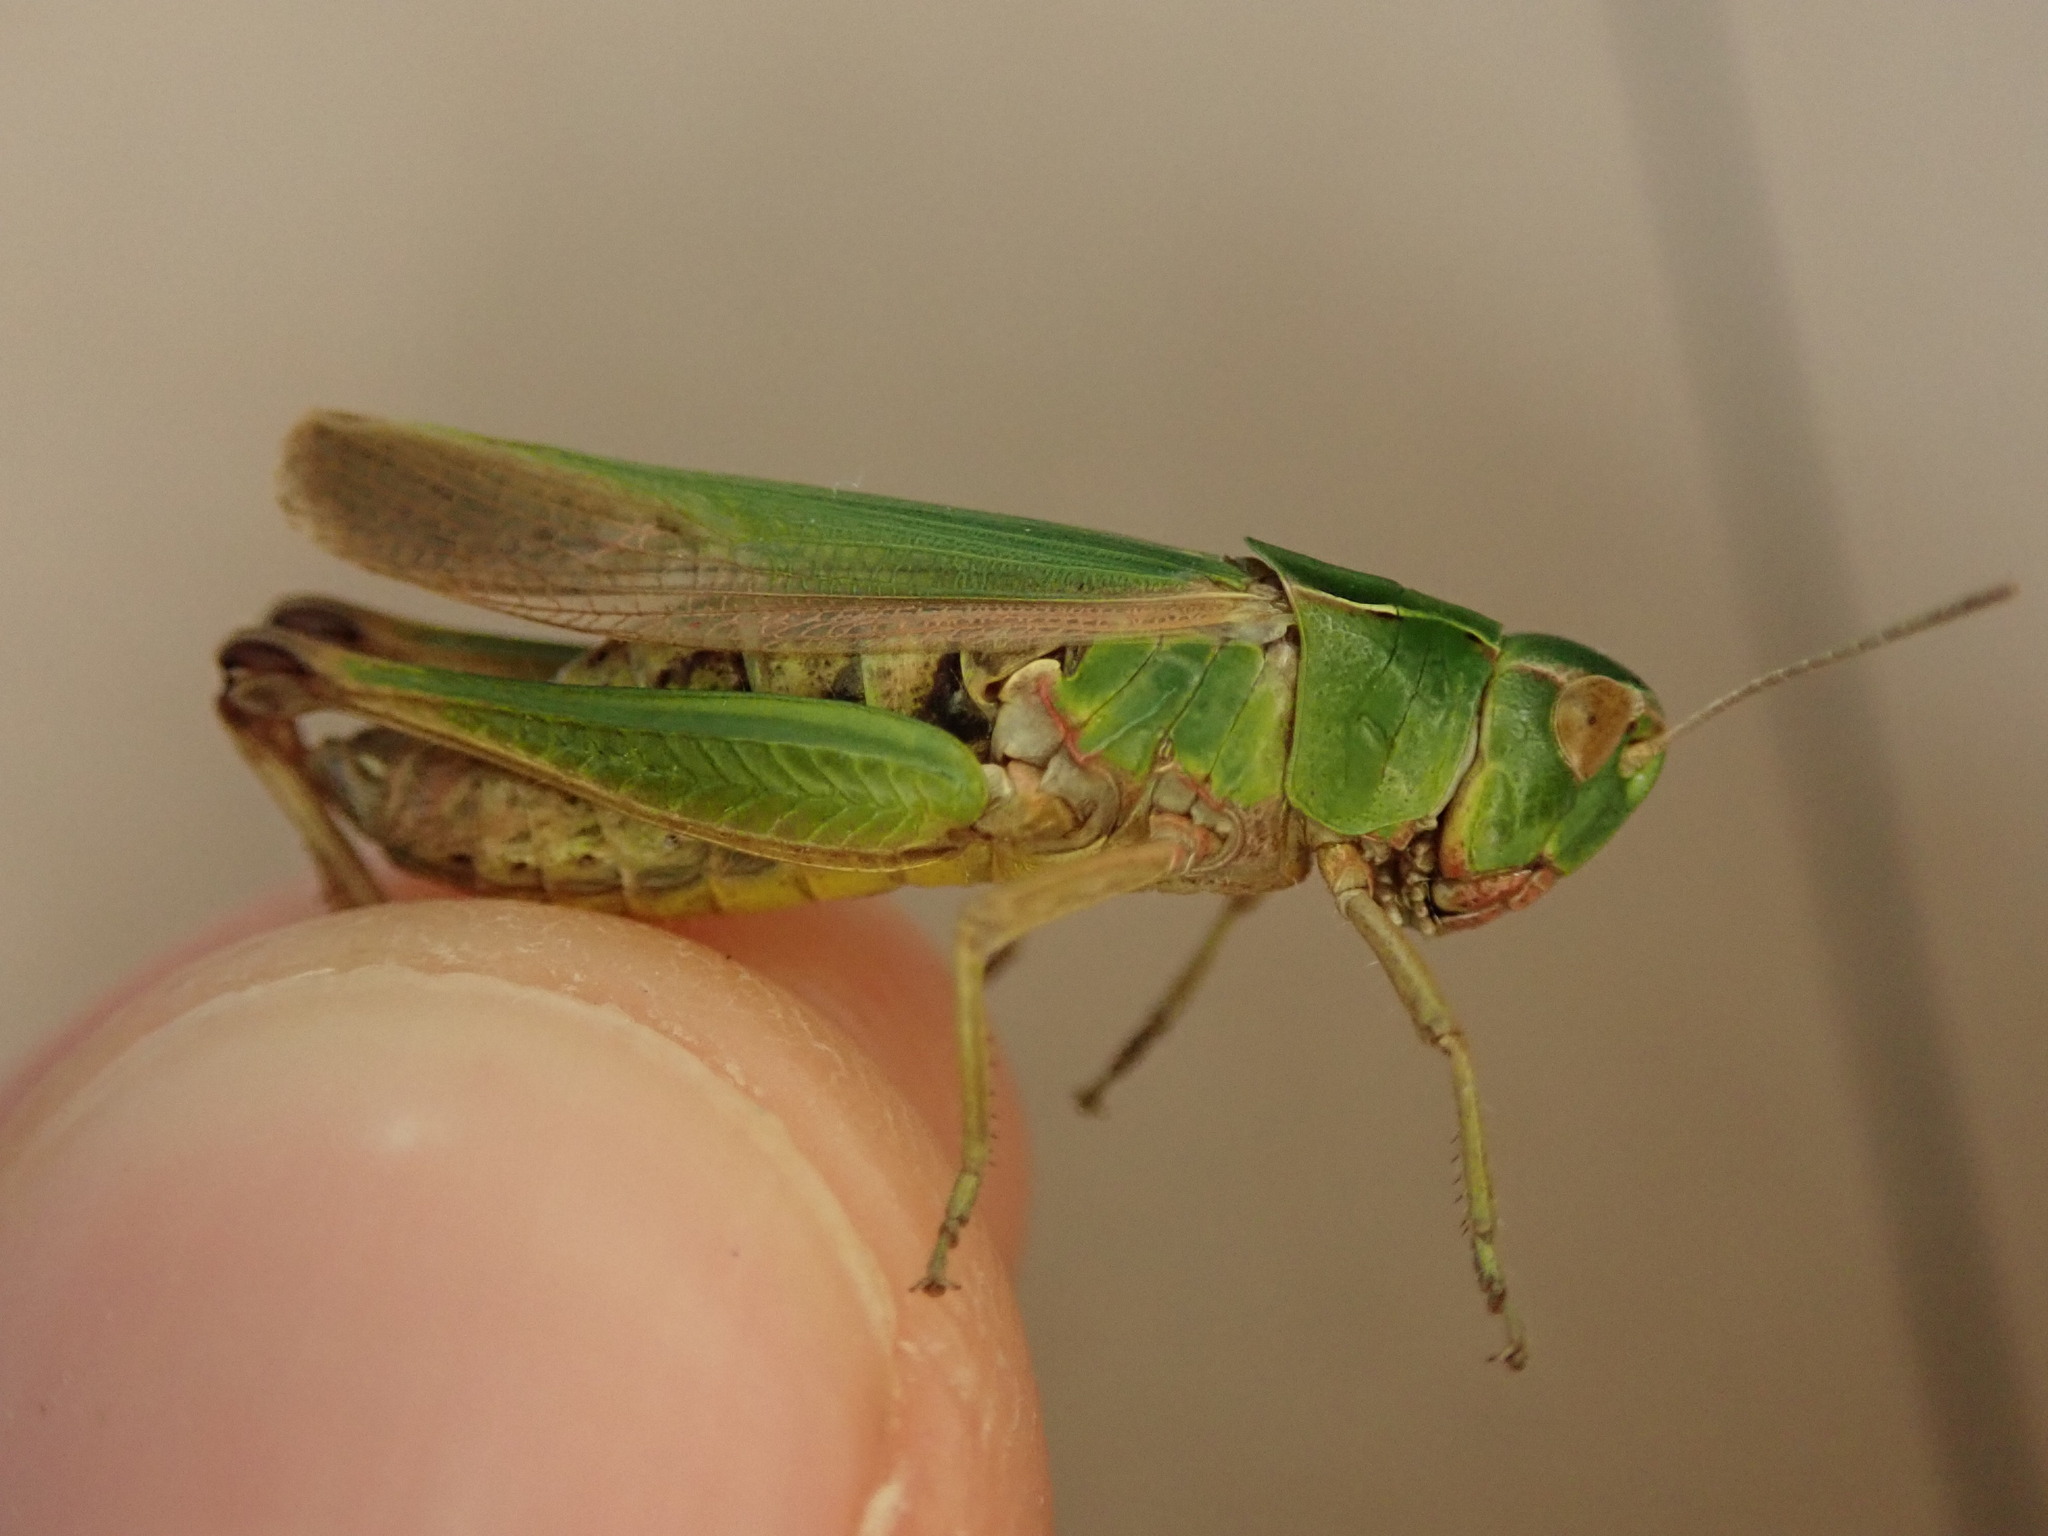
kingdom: Animalia
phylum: Arthropoda
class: Insecta
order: Orthoptera
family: Acrididae
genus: Omocestus
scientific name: Omocestus viridulus
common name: Common green grasshopper
